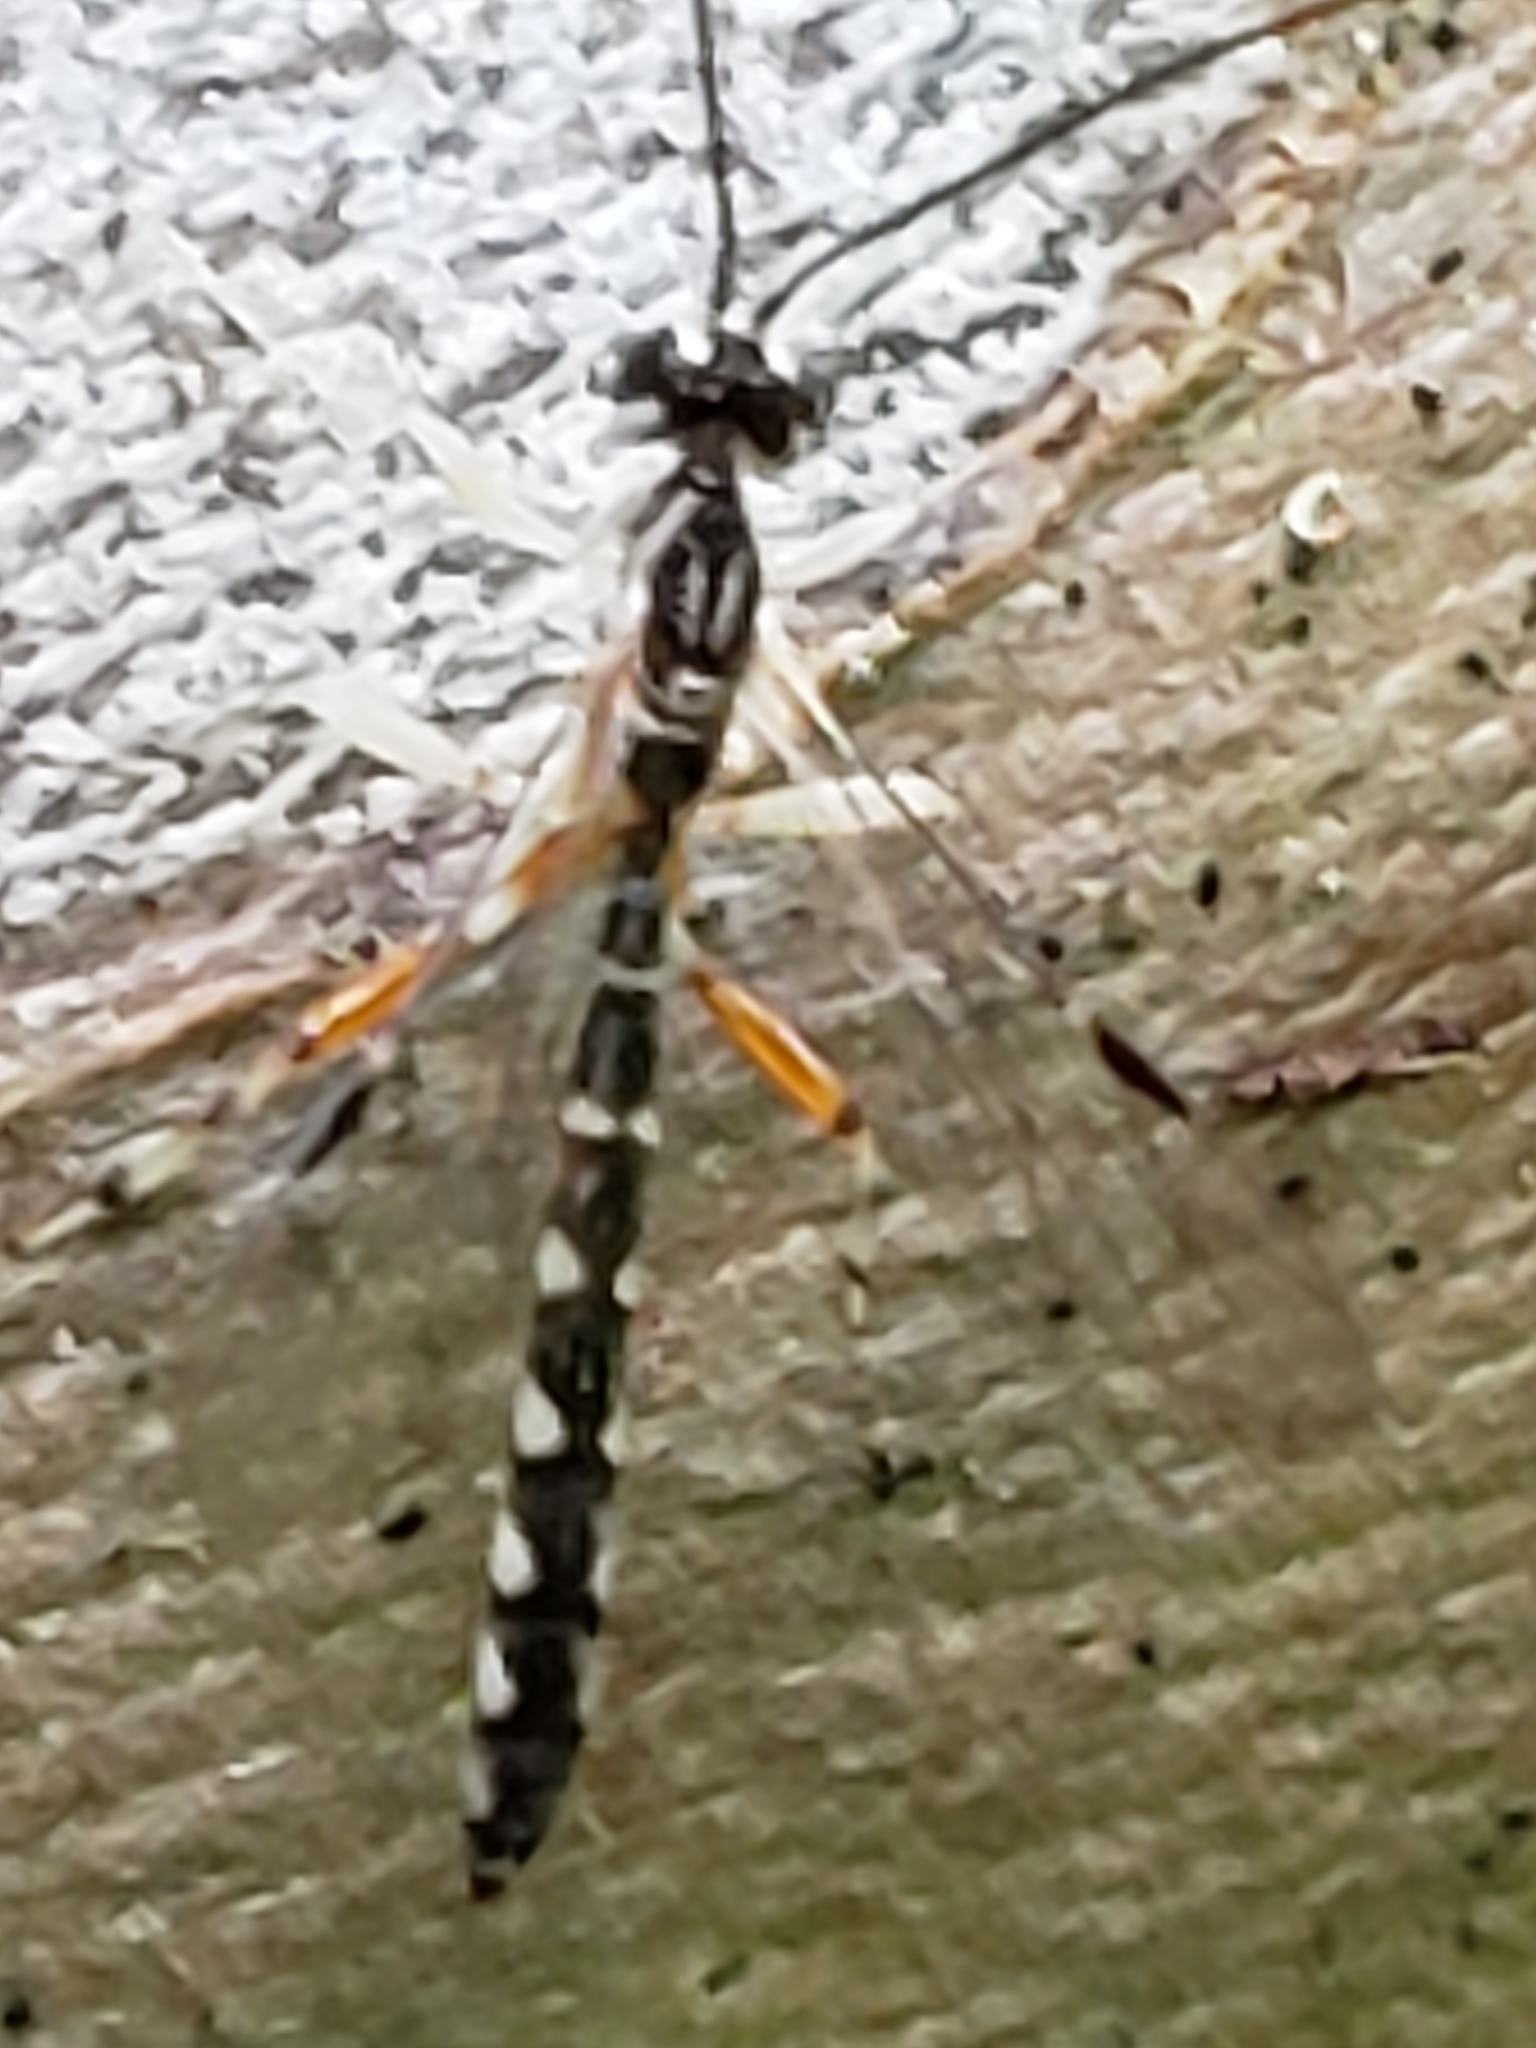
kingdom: Animalia
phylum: Arthropoda
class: Insecta
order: Hymenoptera
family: Ichneumonidae
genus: Rhyssella
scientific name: Rhyssella humida
